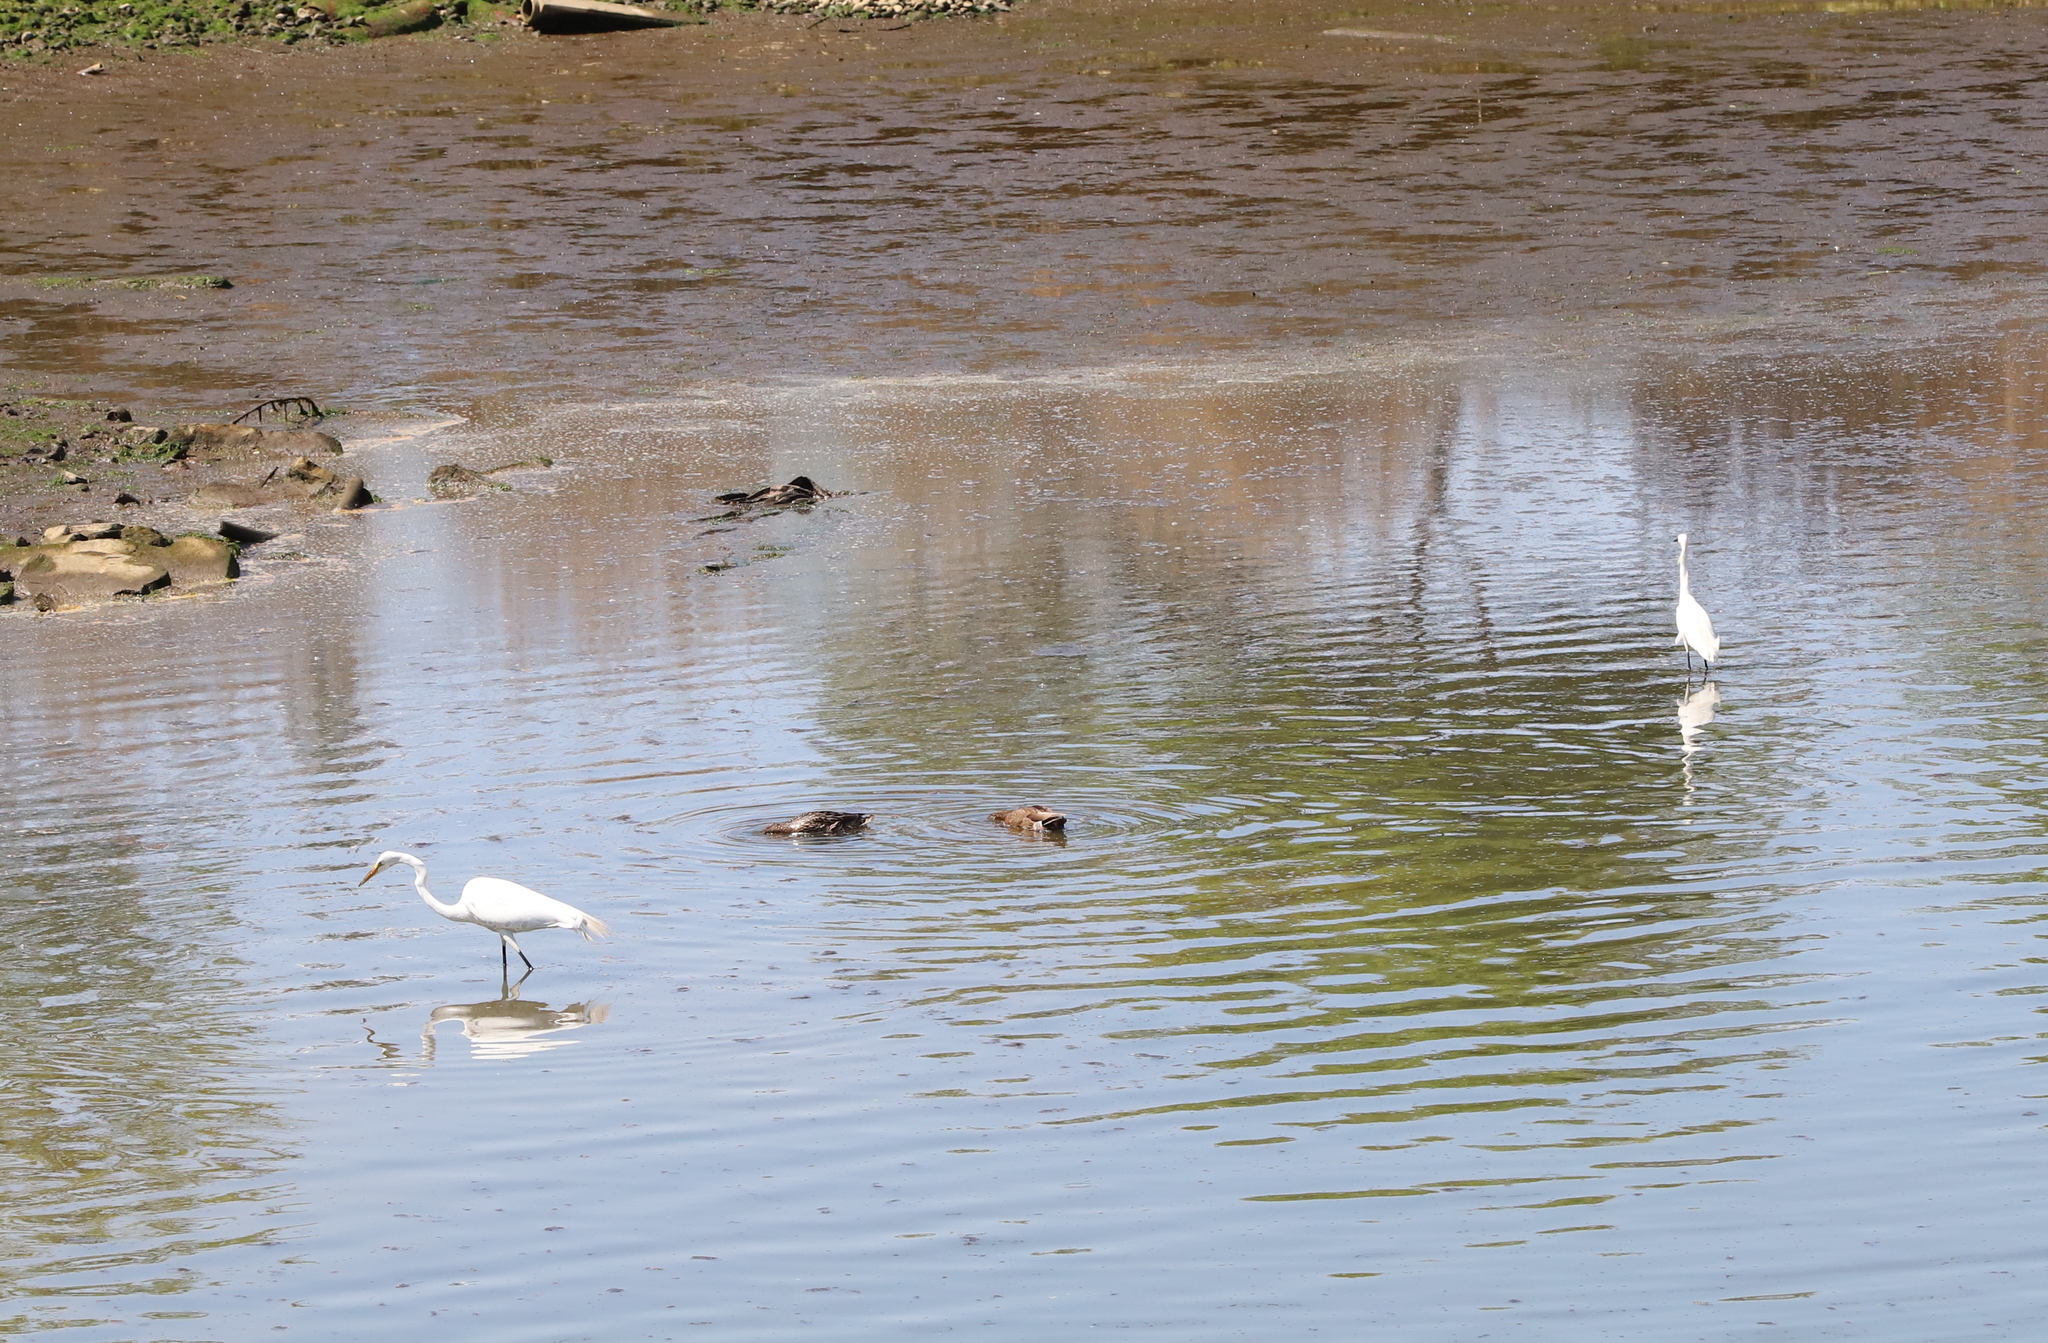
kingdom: Animalia
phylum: Chordata
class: Aves
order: Pelecaniformes
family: Ardeidae
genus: Ardea
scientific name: Ardea alba
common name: Great egret
